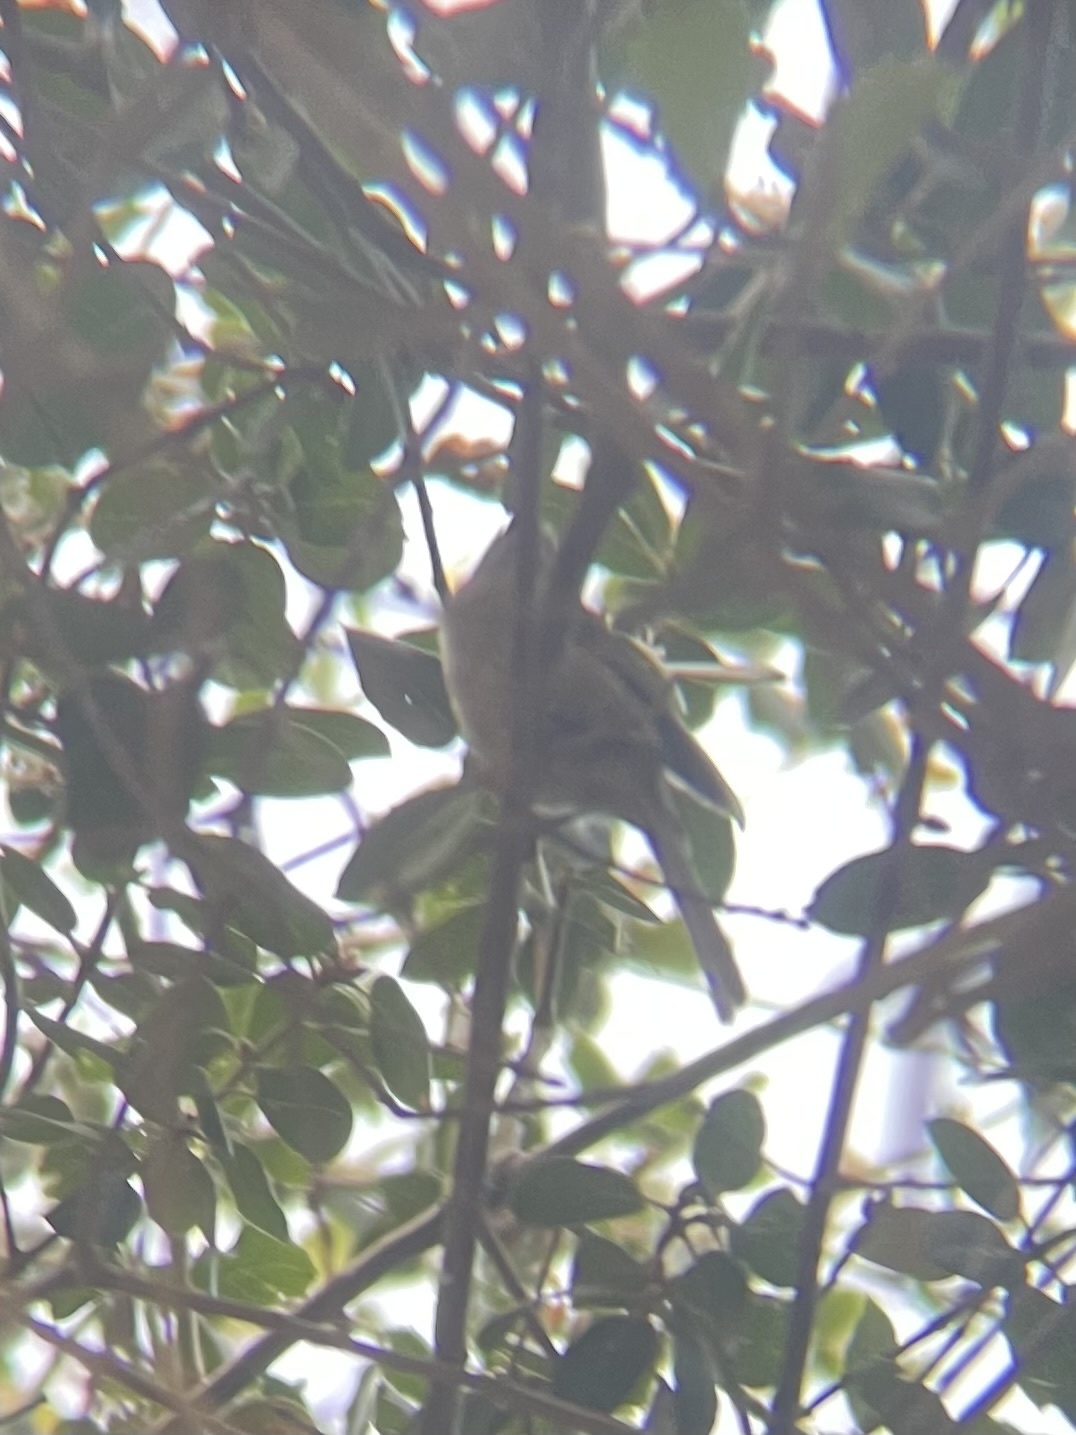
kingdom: Animalia
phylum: Chordata
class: Aves
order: Passeriformes
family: Aegithalidae
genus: Psaltriparus
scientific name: Psaltriparus minimus
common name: American bushtit
